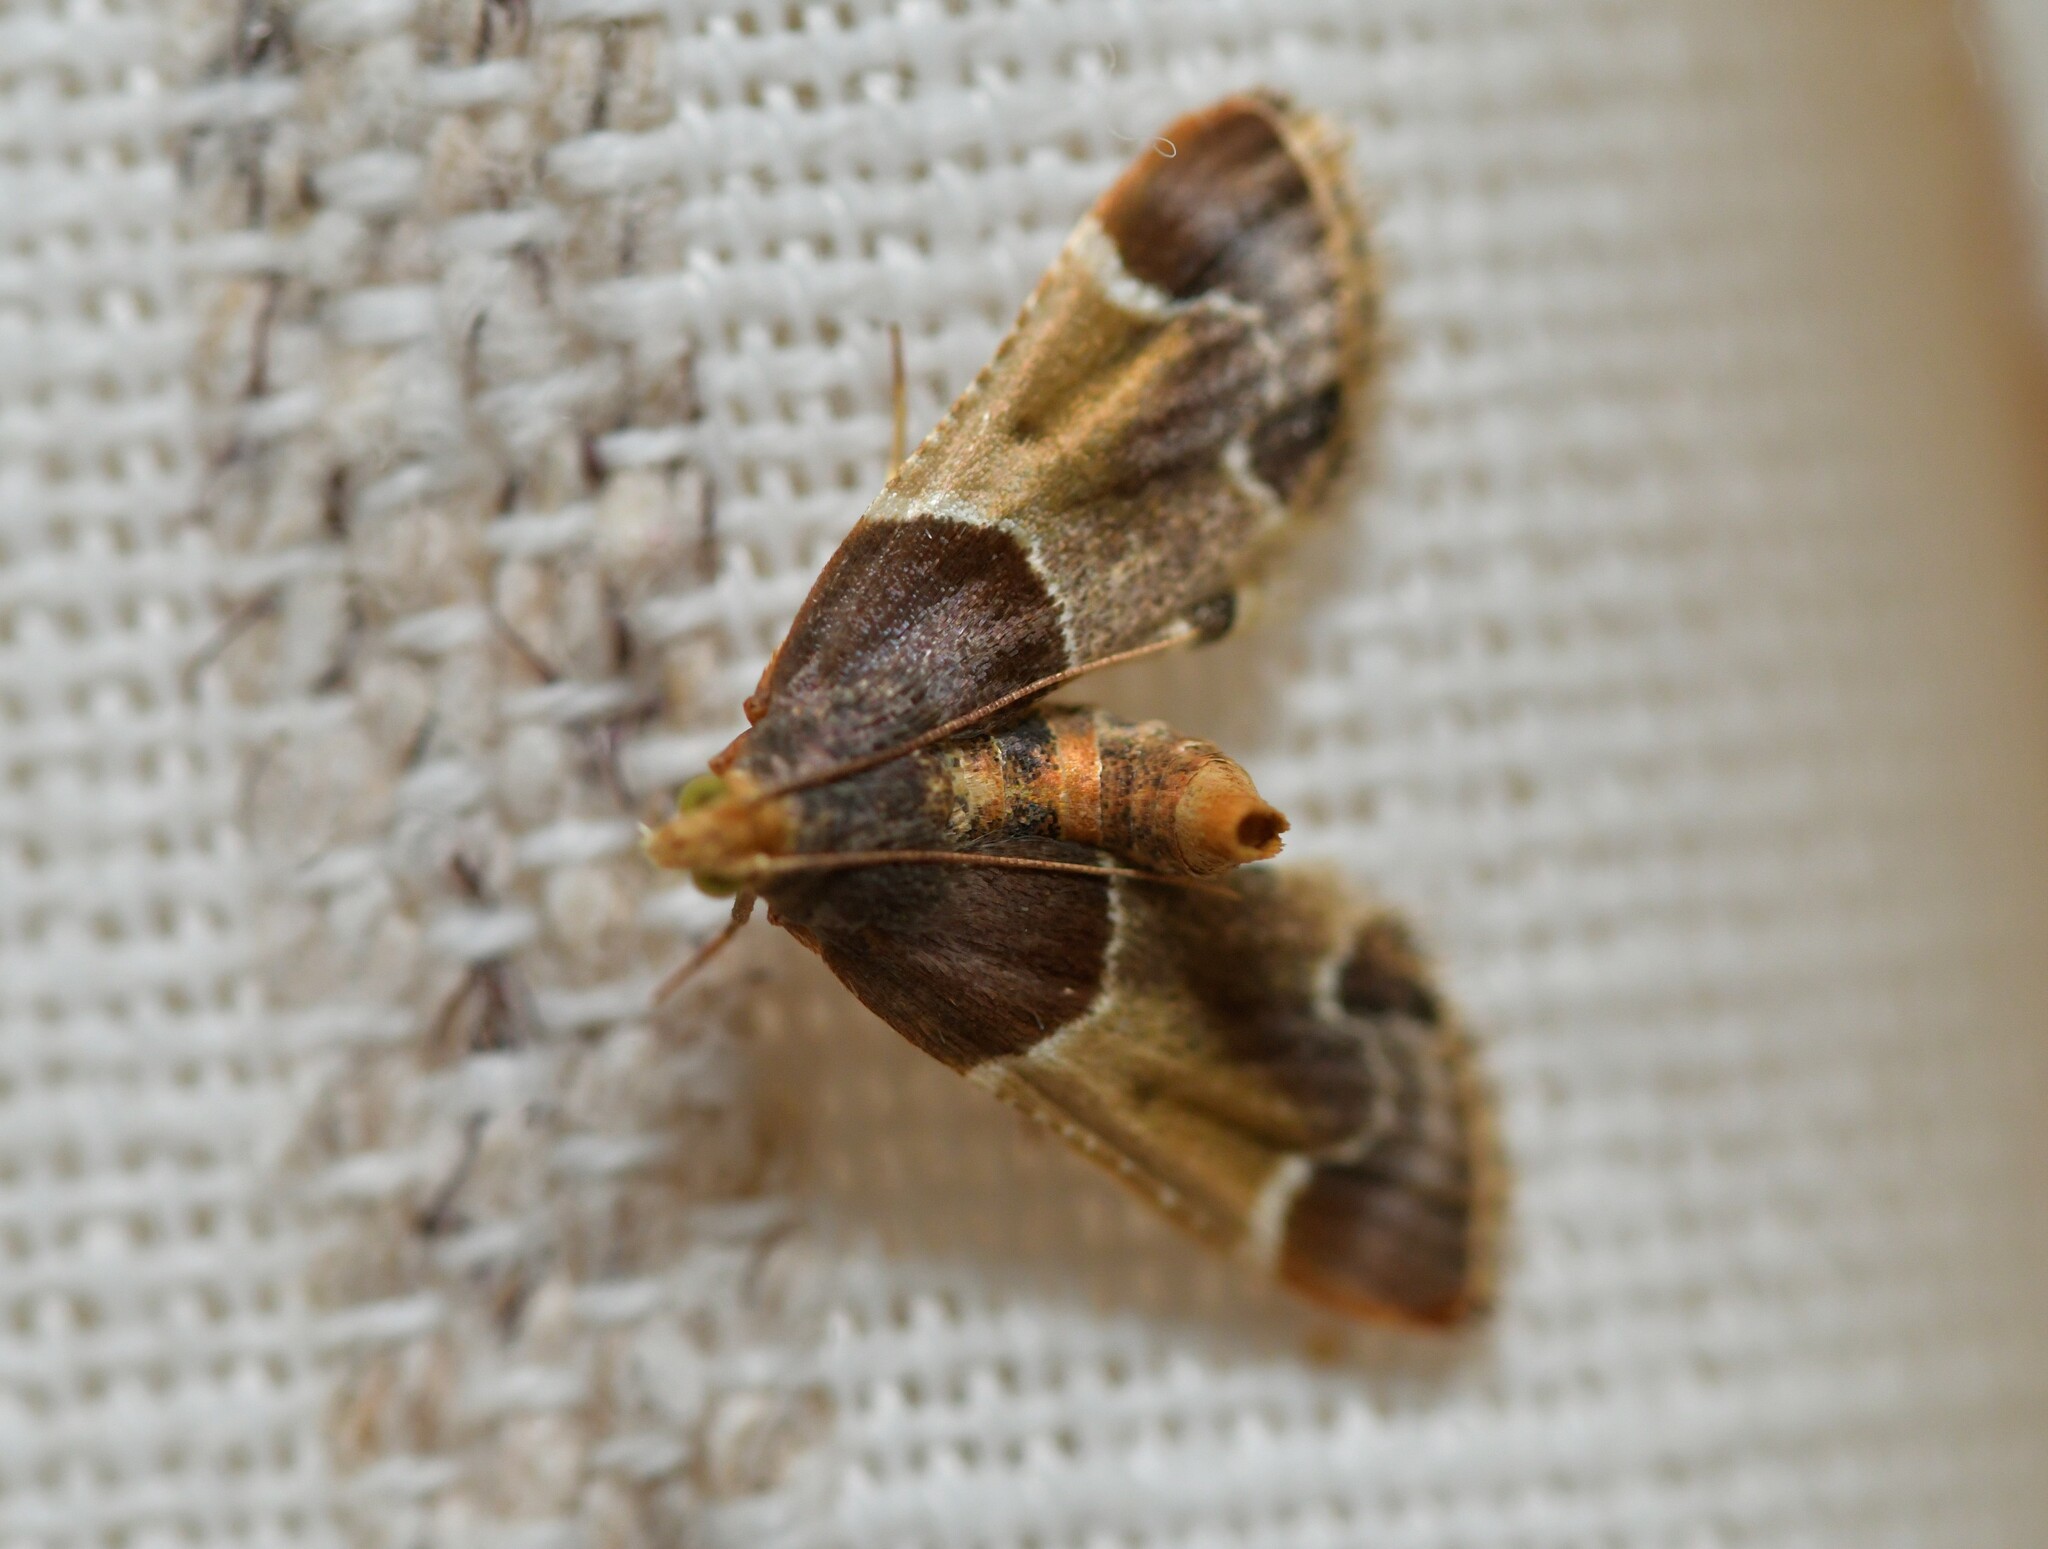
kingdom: Animalia
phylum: Arthropoda
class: Insecta
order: Lepidoptera
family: Pyralidae
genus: Pyralis
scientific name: Pyralis farinalis
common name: Meal moth
